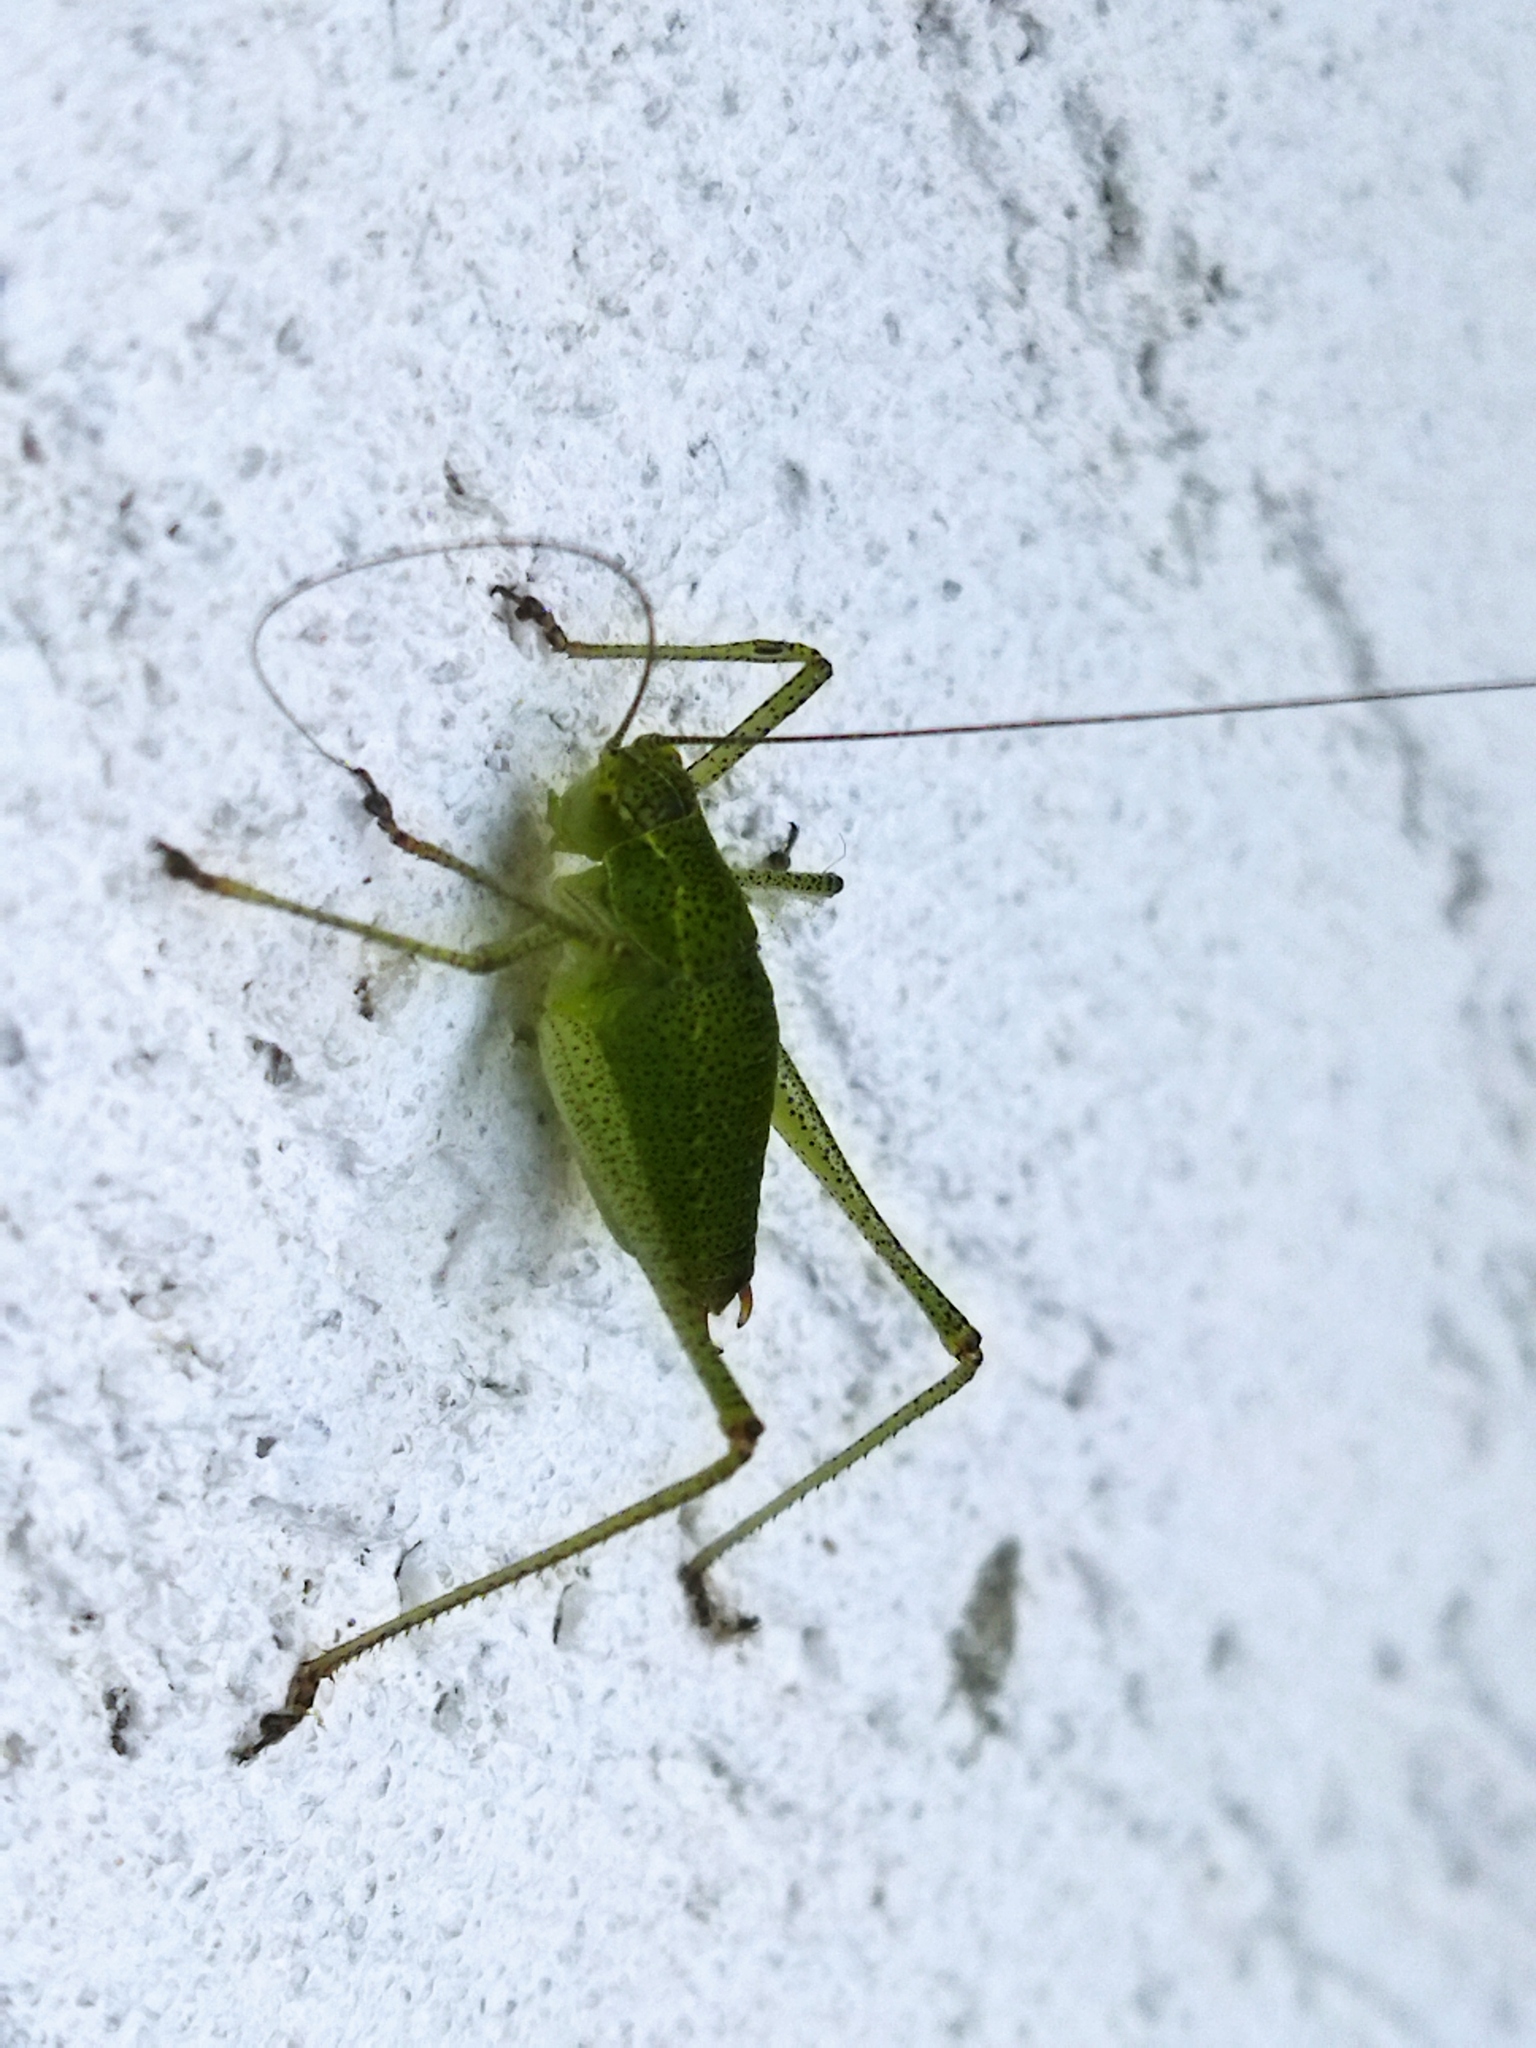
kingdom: Animalia
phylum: Arthropoda
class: Insecta
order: Orthoptera
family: Tettigoniidae
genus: Leptophyes
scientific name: Leptophyes punctatissima
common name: Speckled bush-cricket
